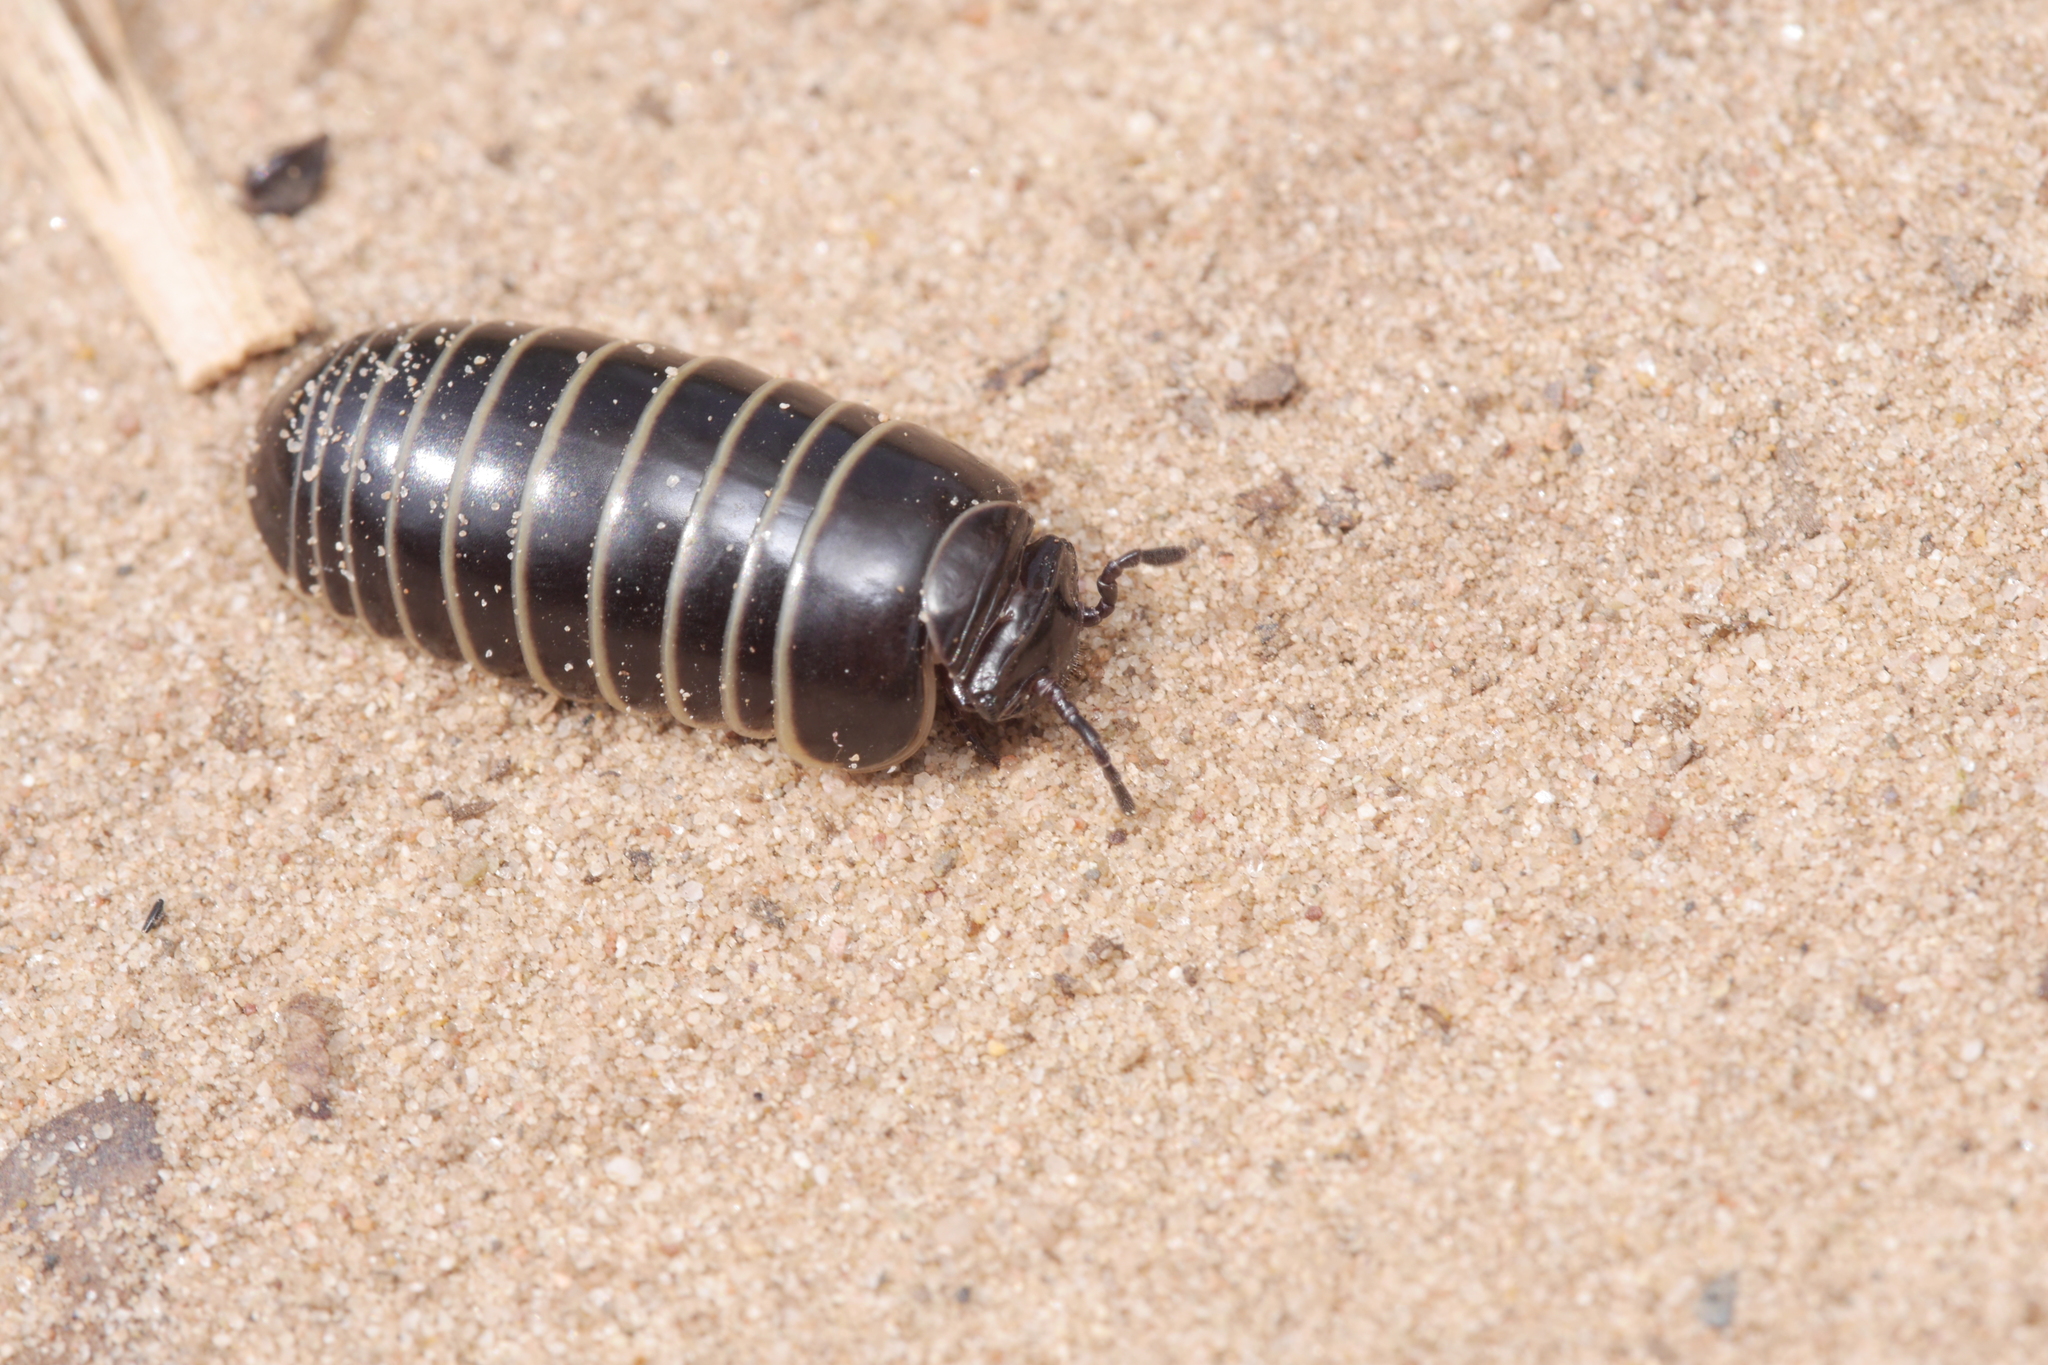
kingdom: Animalia
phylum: Arthropoda
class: Diplopoda
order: Glomerida
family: Glomeridae
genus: Glomeris
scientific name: Glomeris marginata
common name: Bordered pill millipede
